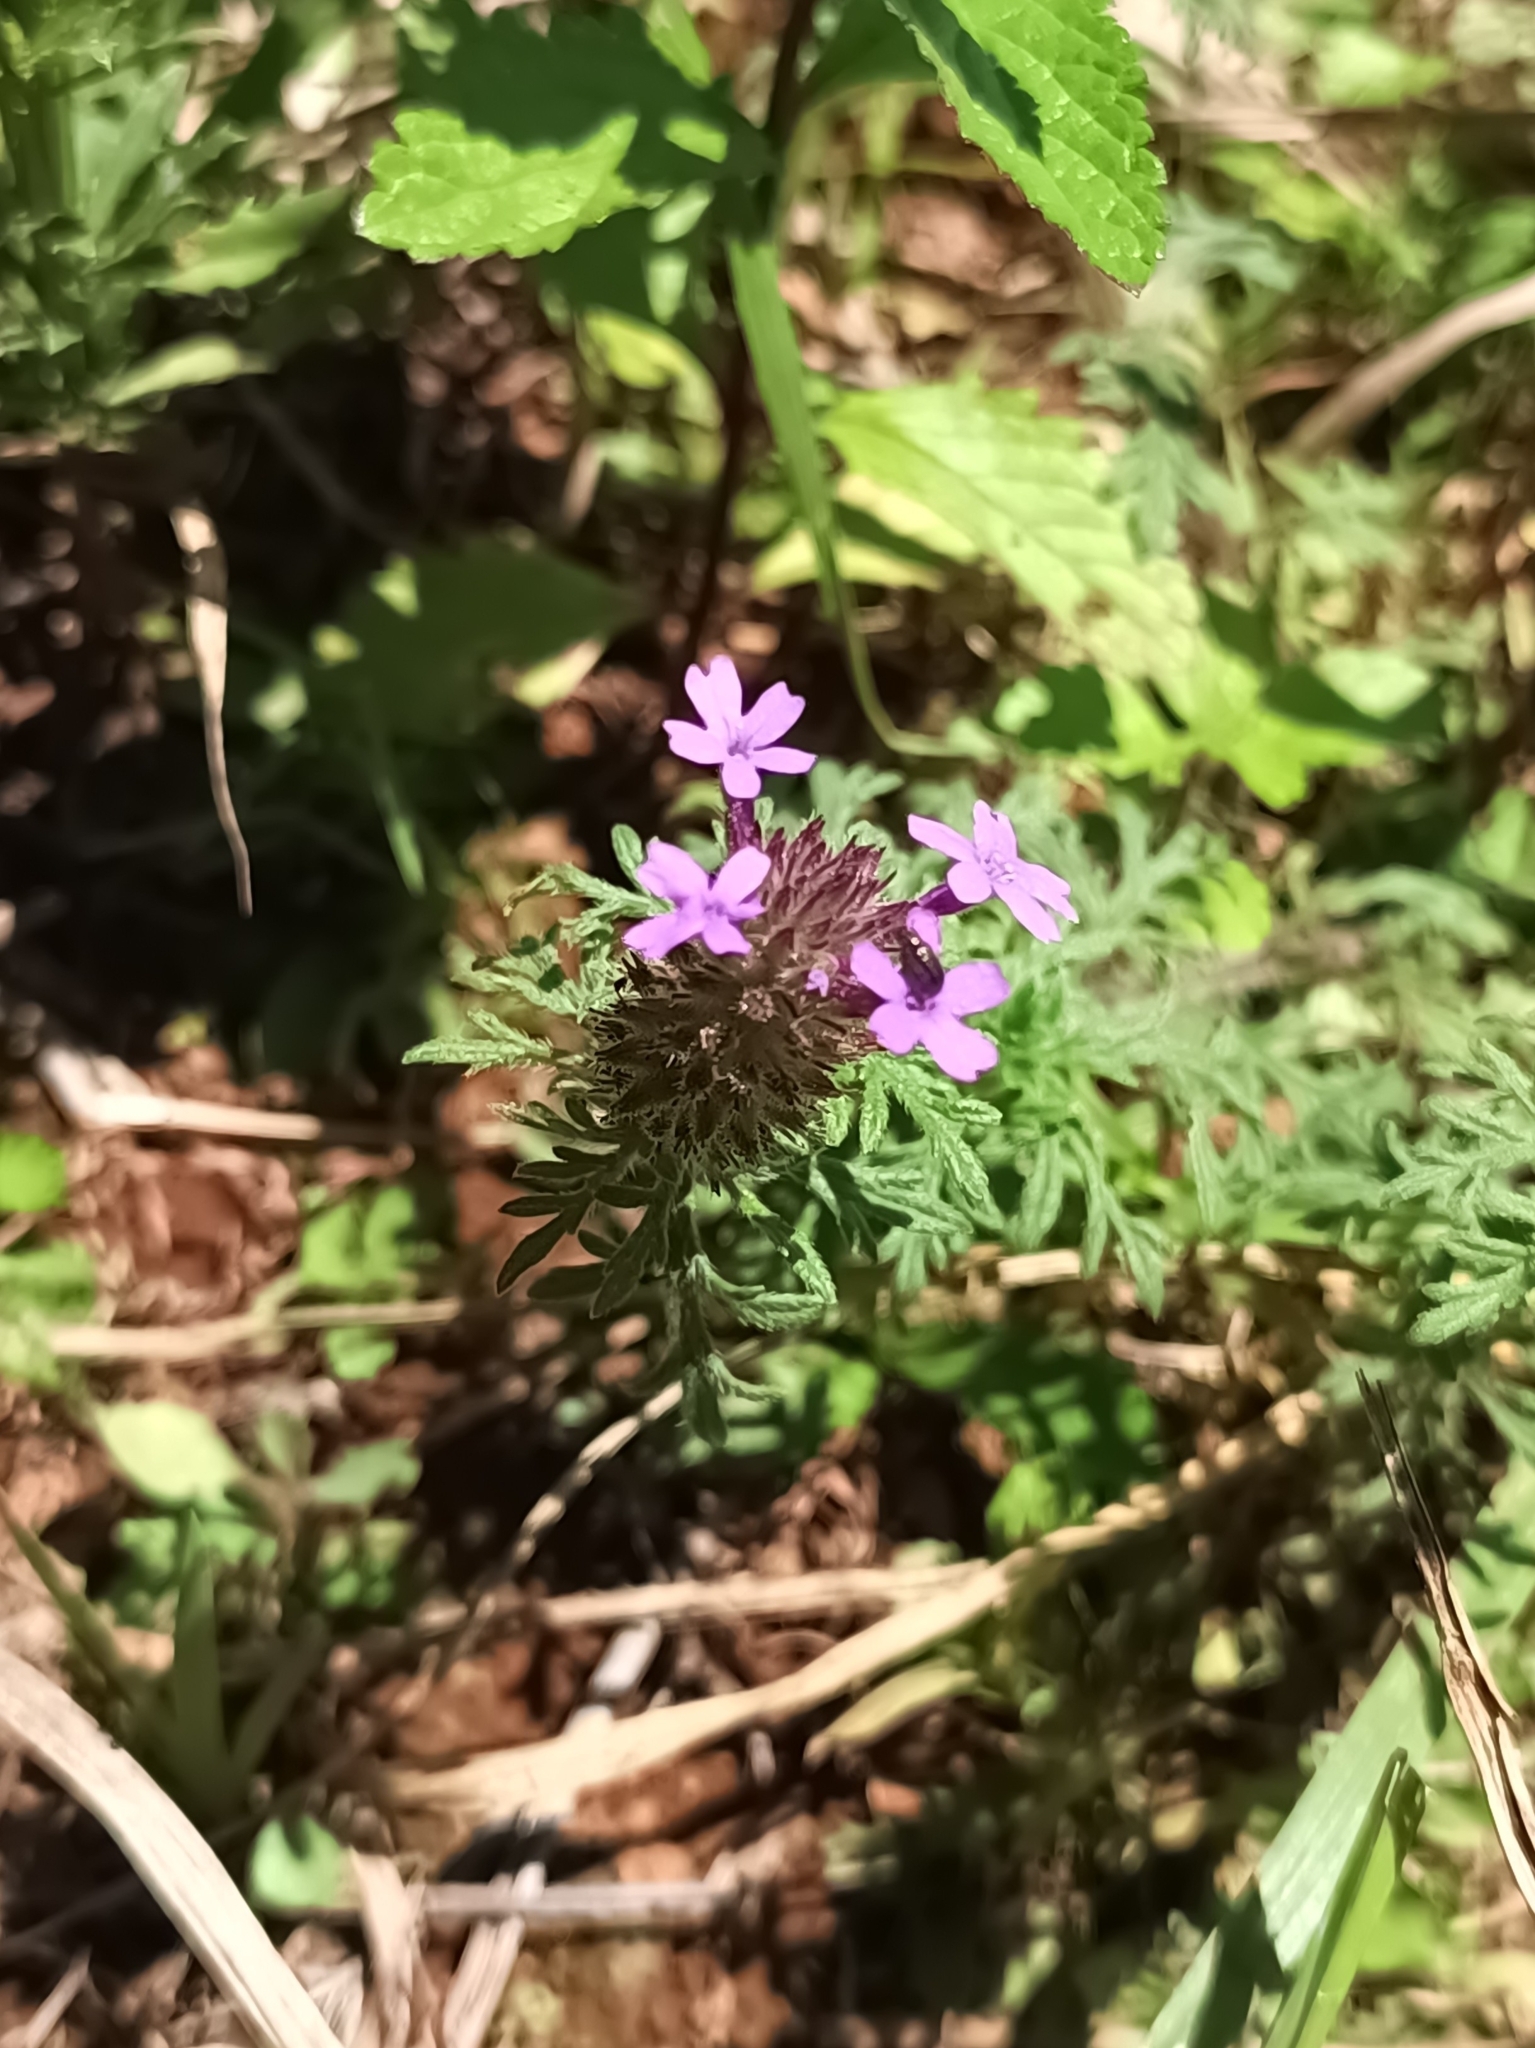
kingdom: Plantae
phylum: Tracheophyta
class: Magnoliopsida
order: Lamiales
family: Verbenaceae
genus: Verbena
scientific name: Verbena bipinnatifida
